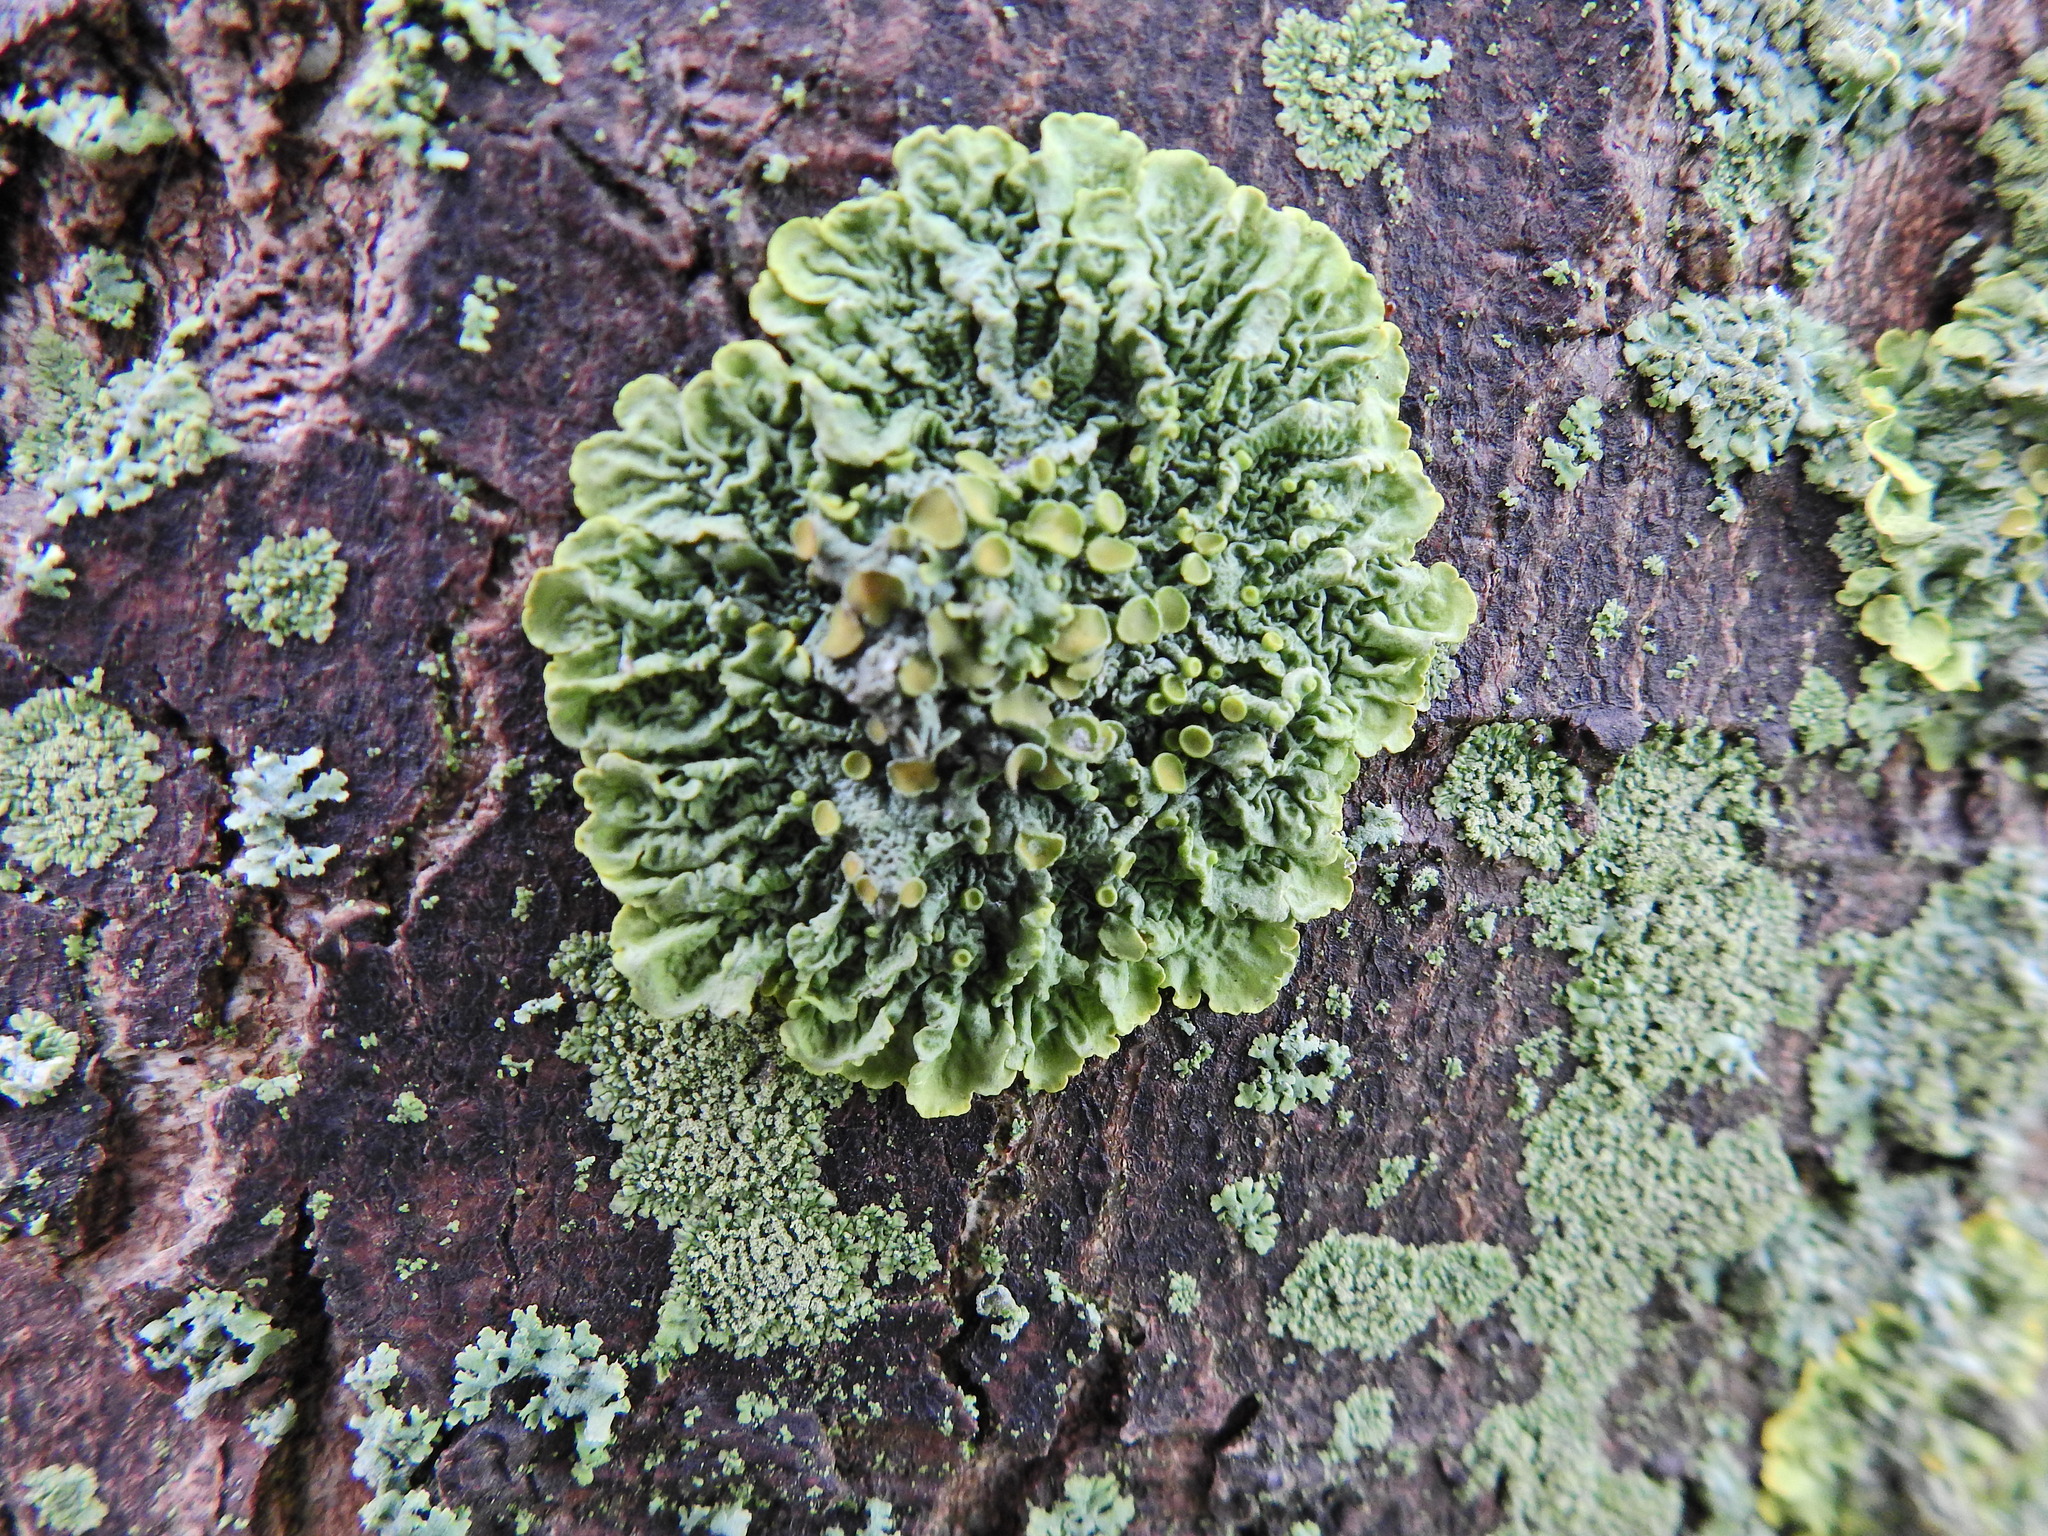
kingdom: Fungi
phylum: Ascomycota
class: Lecanoromycetes
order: Teloschistales
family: Teloschistaceae
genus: Xanthoria
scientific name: Xanthoria parietina
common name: Common orange lichen
